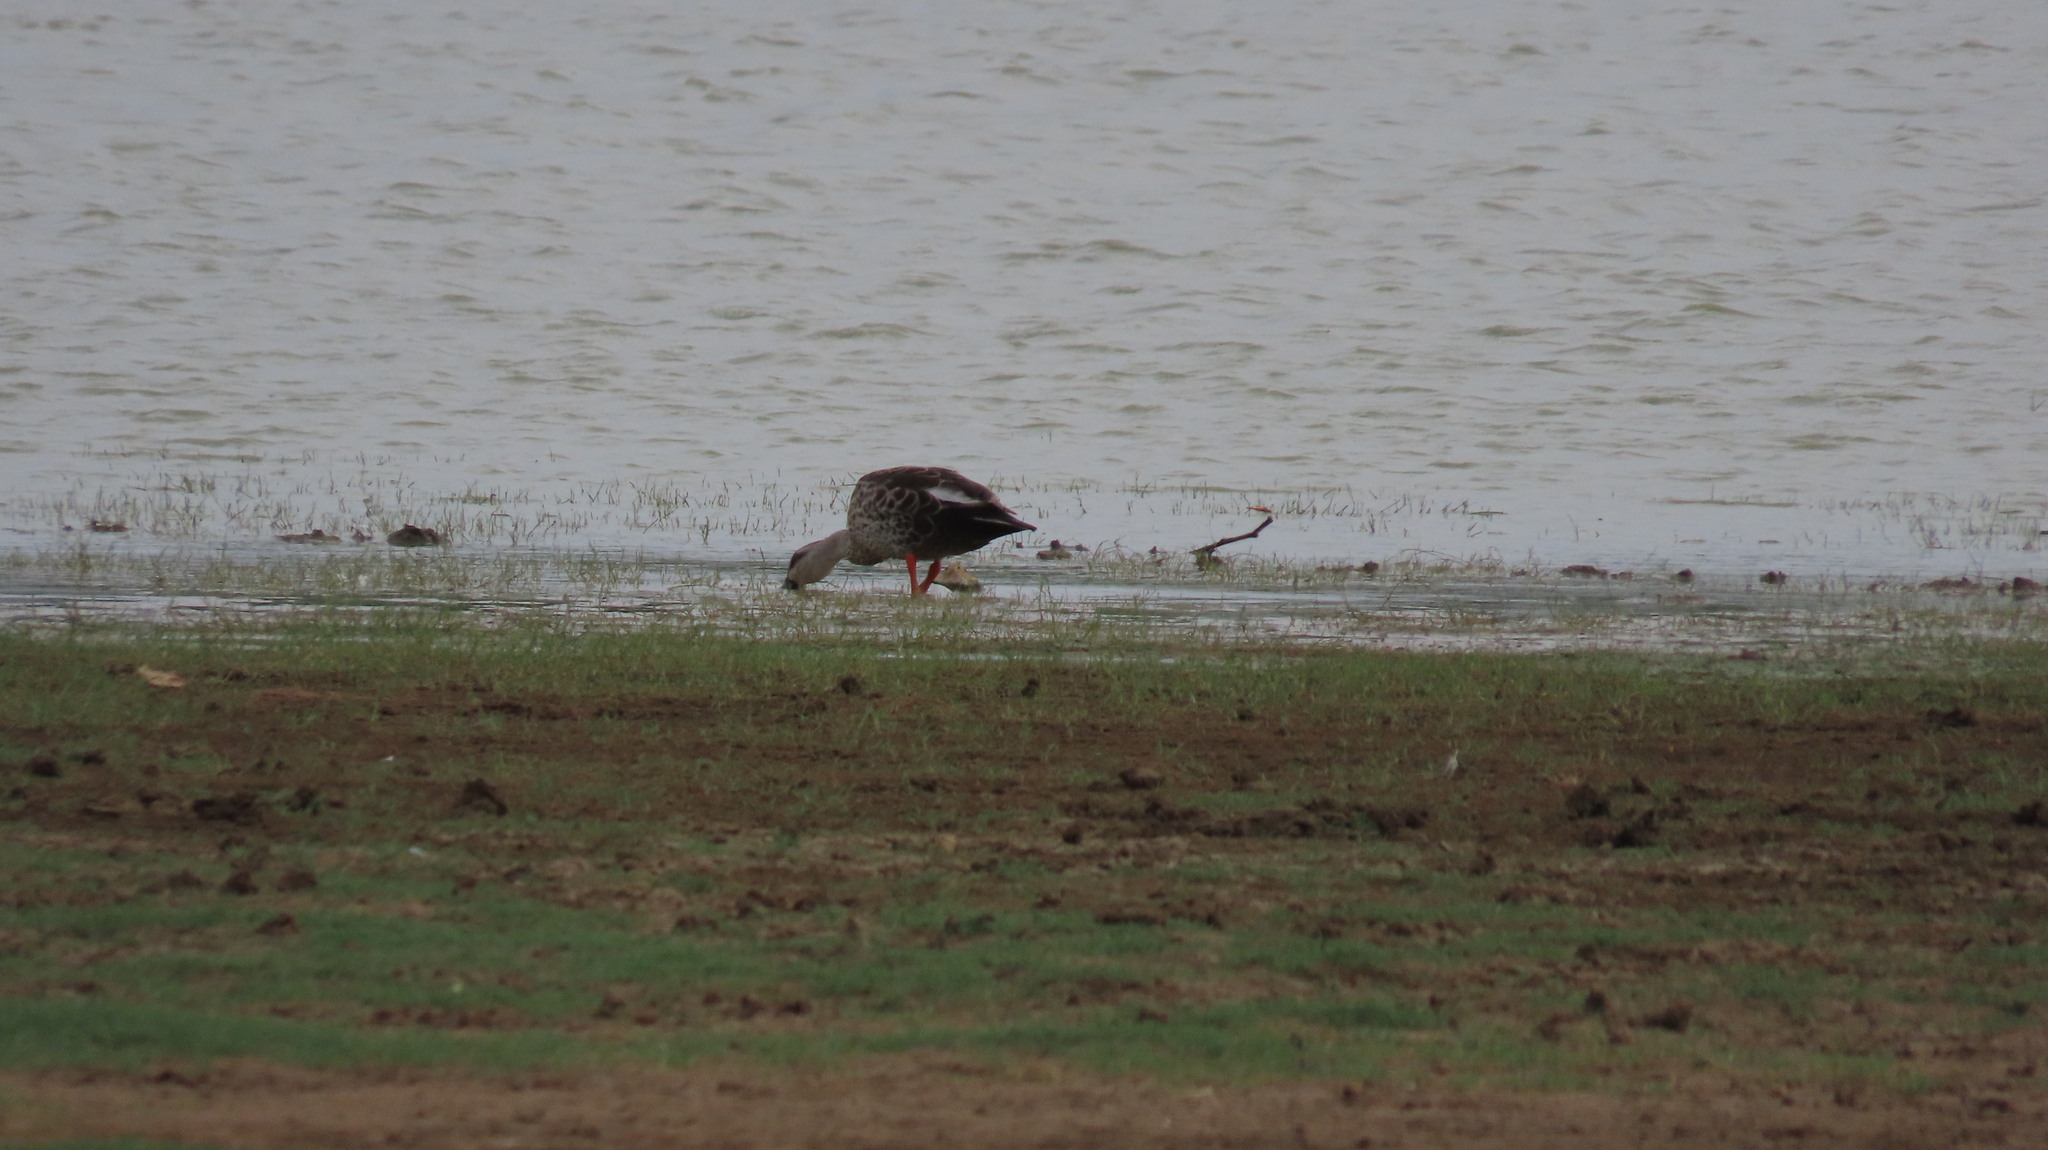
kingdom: Animalia
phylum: Chordata
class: Aves
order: Anseriformes
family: Anatidae
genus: Anas
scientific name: Anas poecilorhyncha
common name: Indian spot-billed duck
